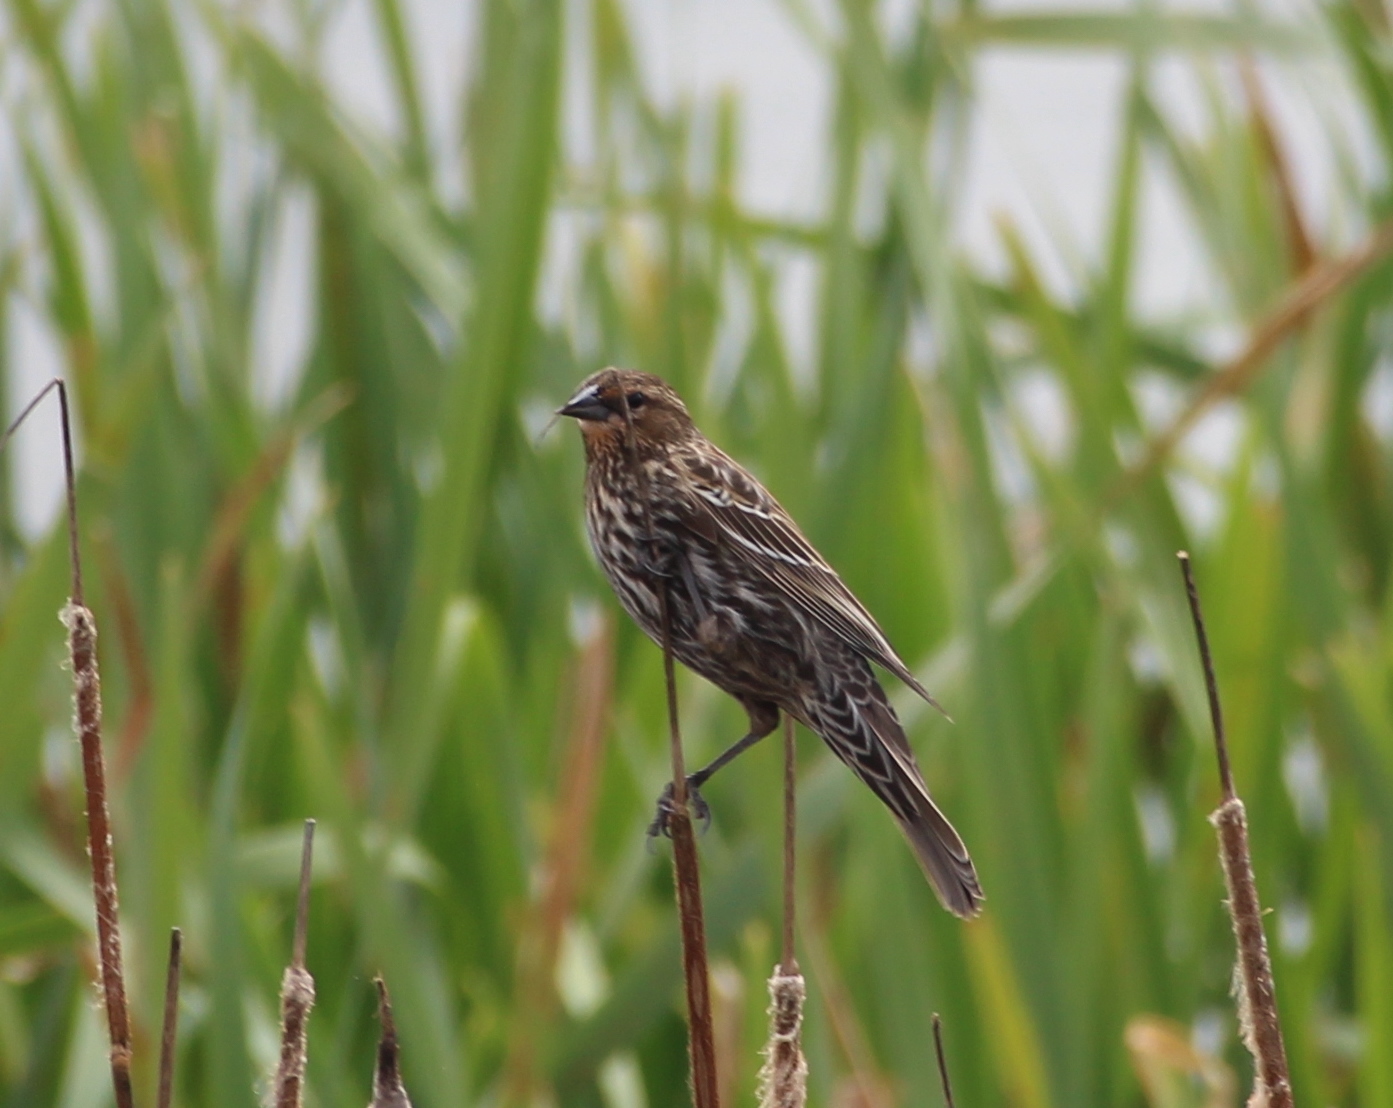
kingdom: Animalia
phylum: Chordata
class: Aves
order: Passeriformes
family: Icteridae
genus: Agelaius
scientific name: Agelaius phoeniceus
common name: Red-winged blackbird
